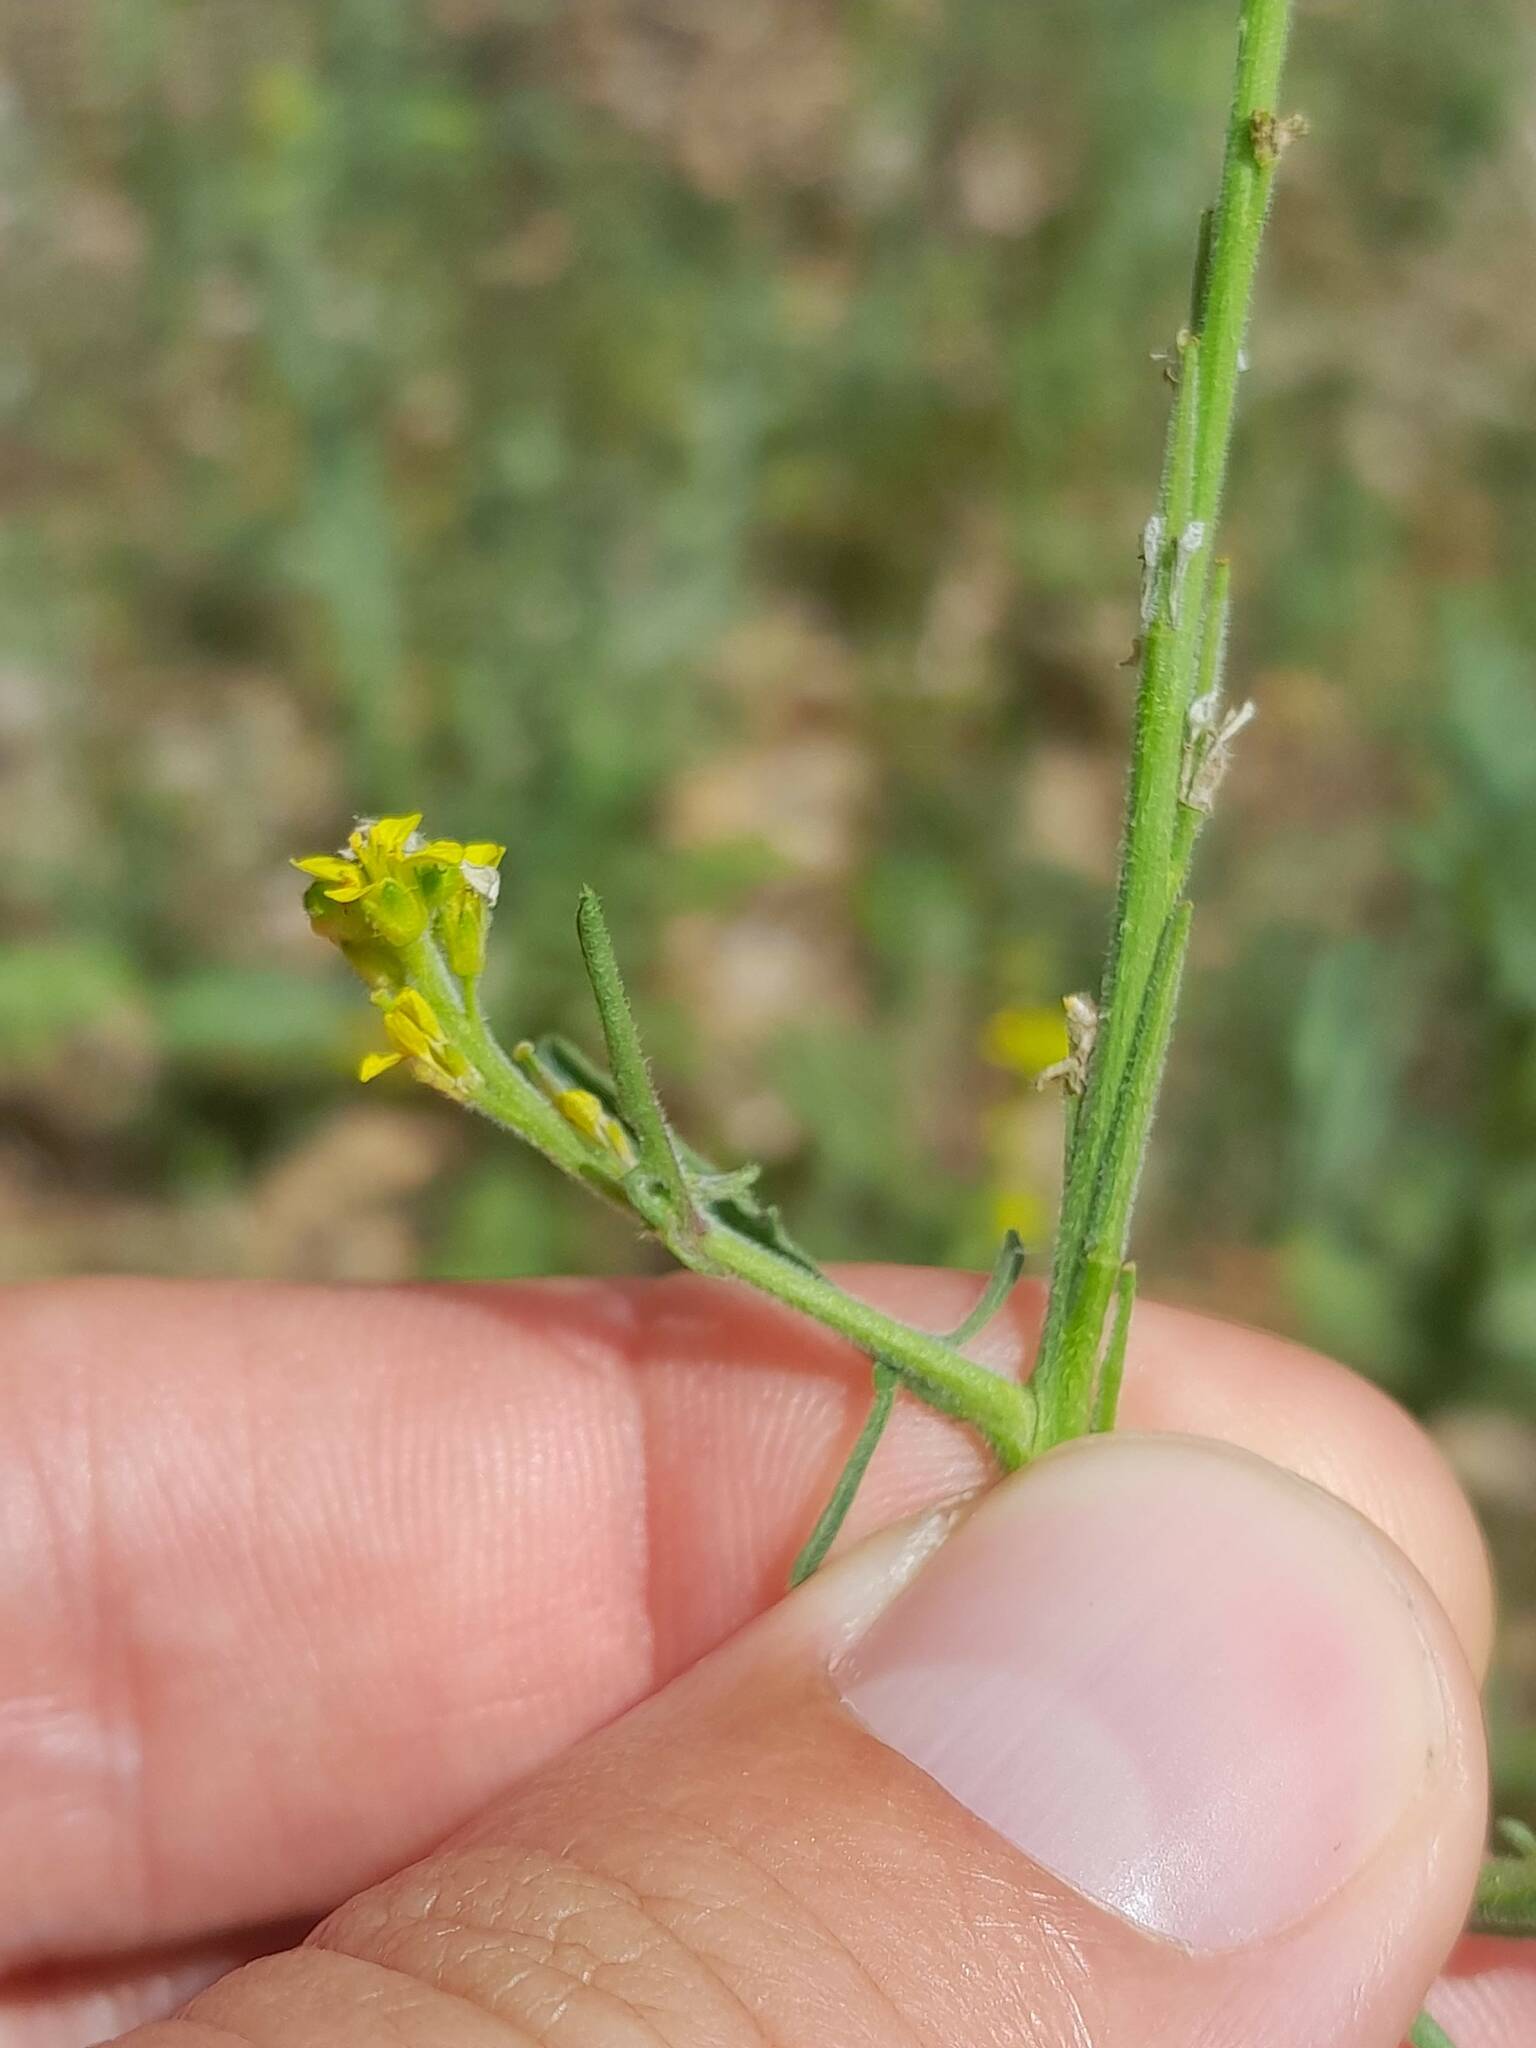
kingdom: Plantae
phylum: Tracheophyta
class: Magnoliopsida
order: Brassicales
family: Brassicaceae
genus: Sisymbrium
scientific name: Sisymbrium officinale
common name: Hedge mustard
